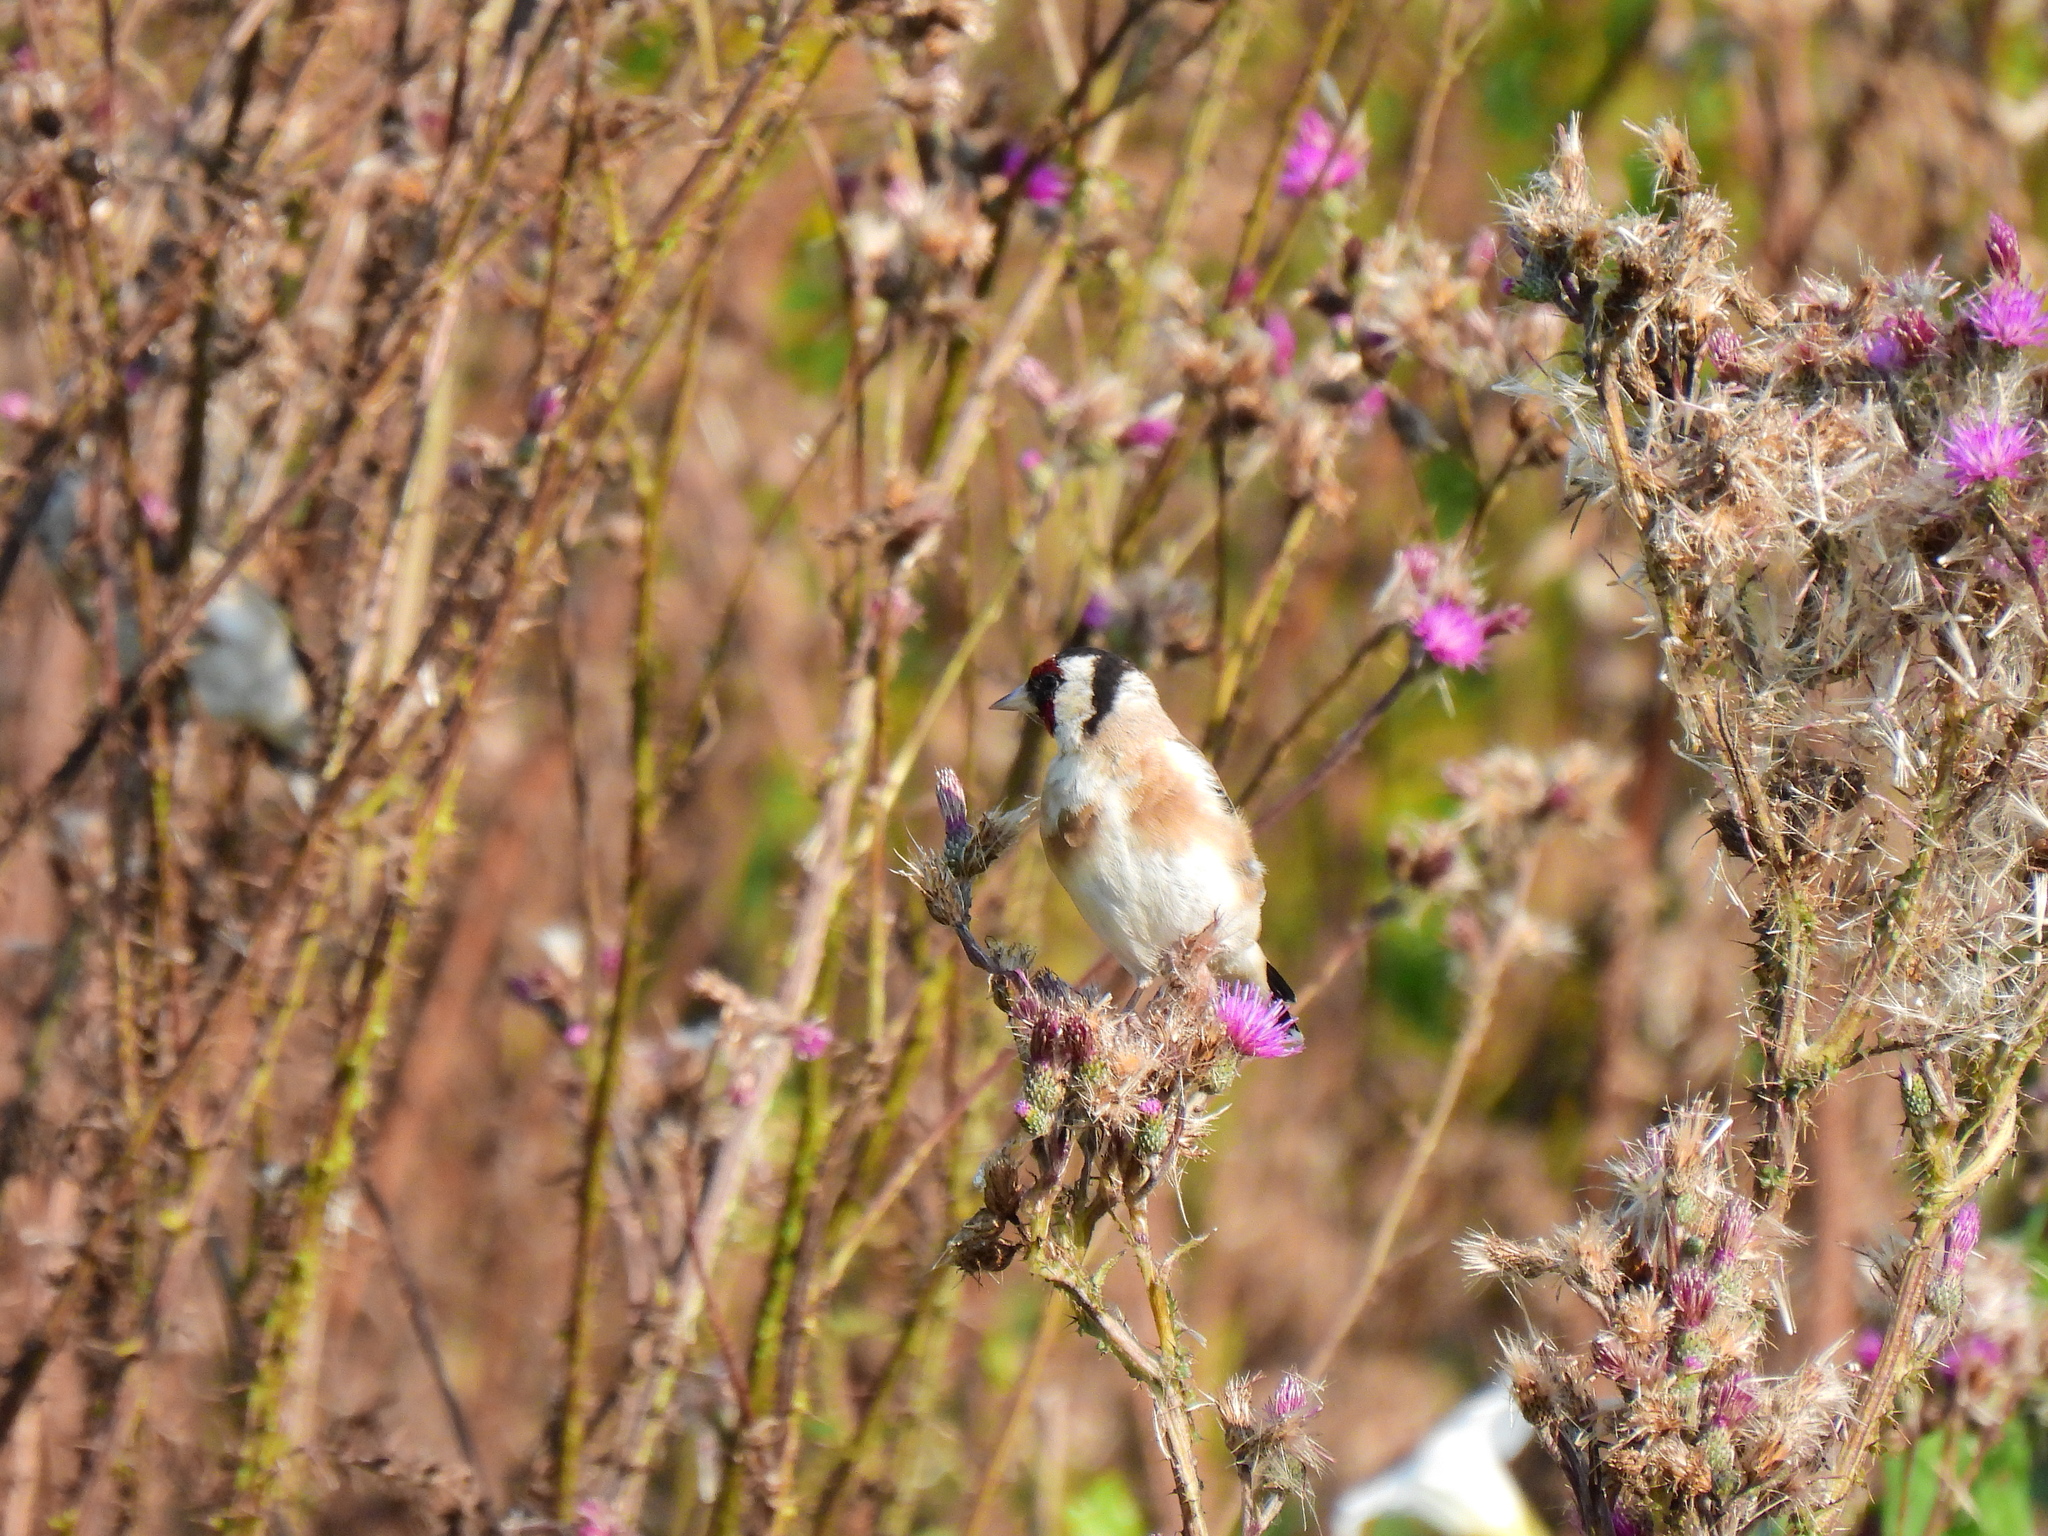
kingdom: Animalia
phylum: Chordata
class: Aves
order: Passeriformes
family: Fringillidae
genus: Carduelis
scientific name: Carduelis carduelis
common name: European goldfinch
